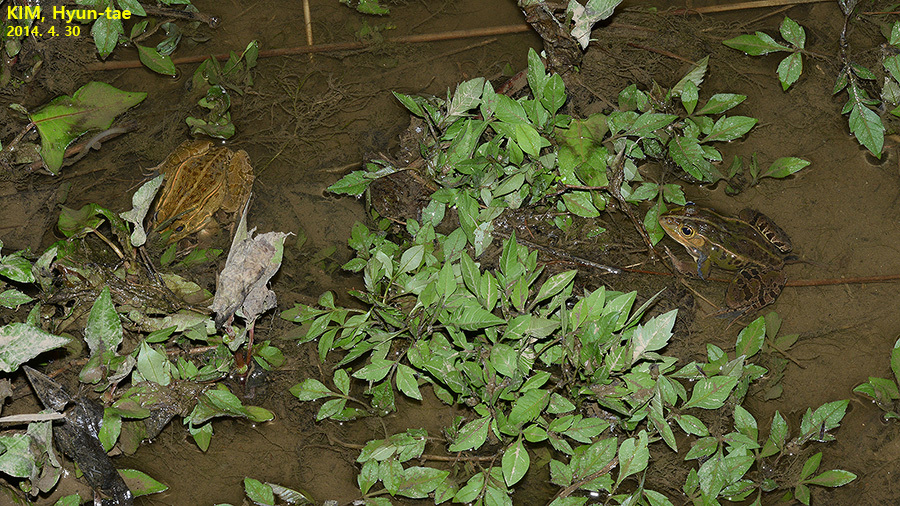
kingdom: Animalia
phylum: Chordata
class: Amphibia
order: Anura
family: Ranidae
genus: Pelophylax
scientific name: Pelophylax nigromaculatus
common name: Black-spotted pond frog
